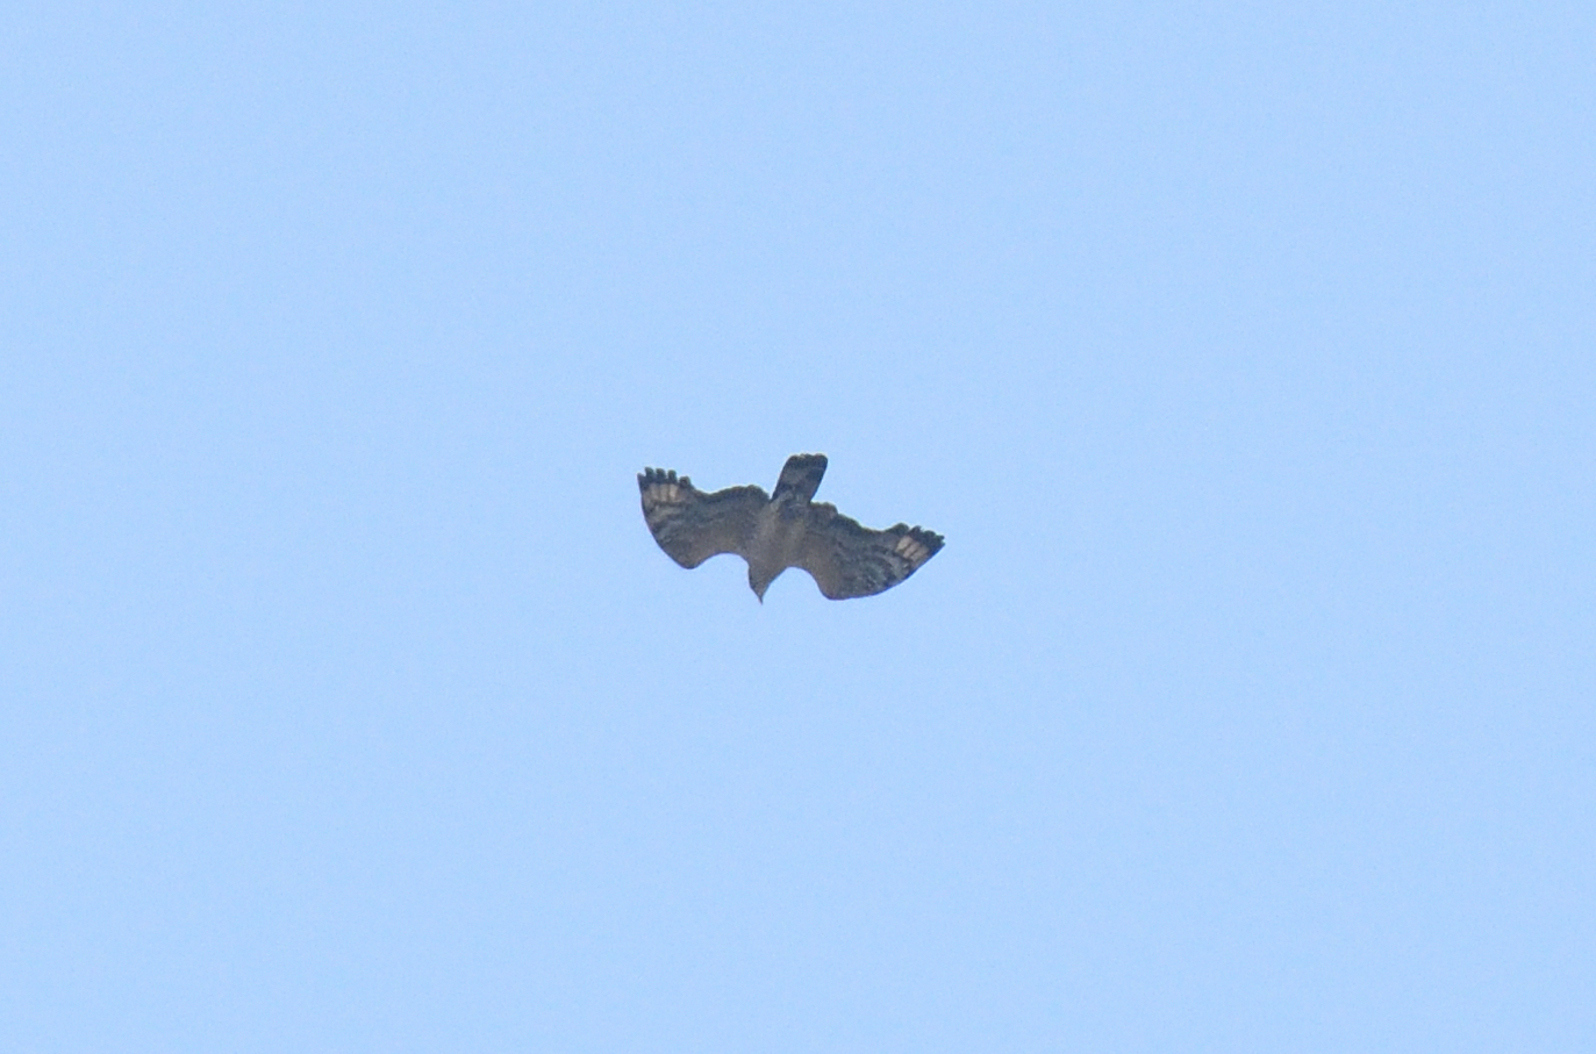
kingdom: Animalia
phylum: Chordata
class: Aves
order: Accipitriformes
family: Accipitridae
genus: Pernis
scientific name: Pernis ptilorhynchus
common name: Crested honey buzzard
